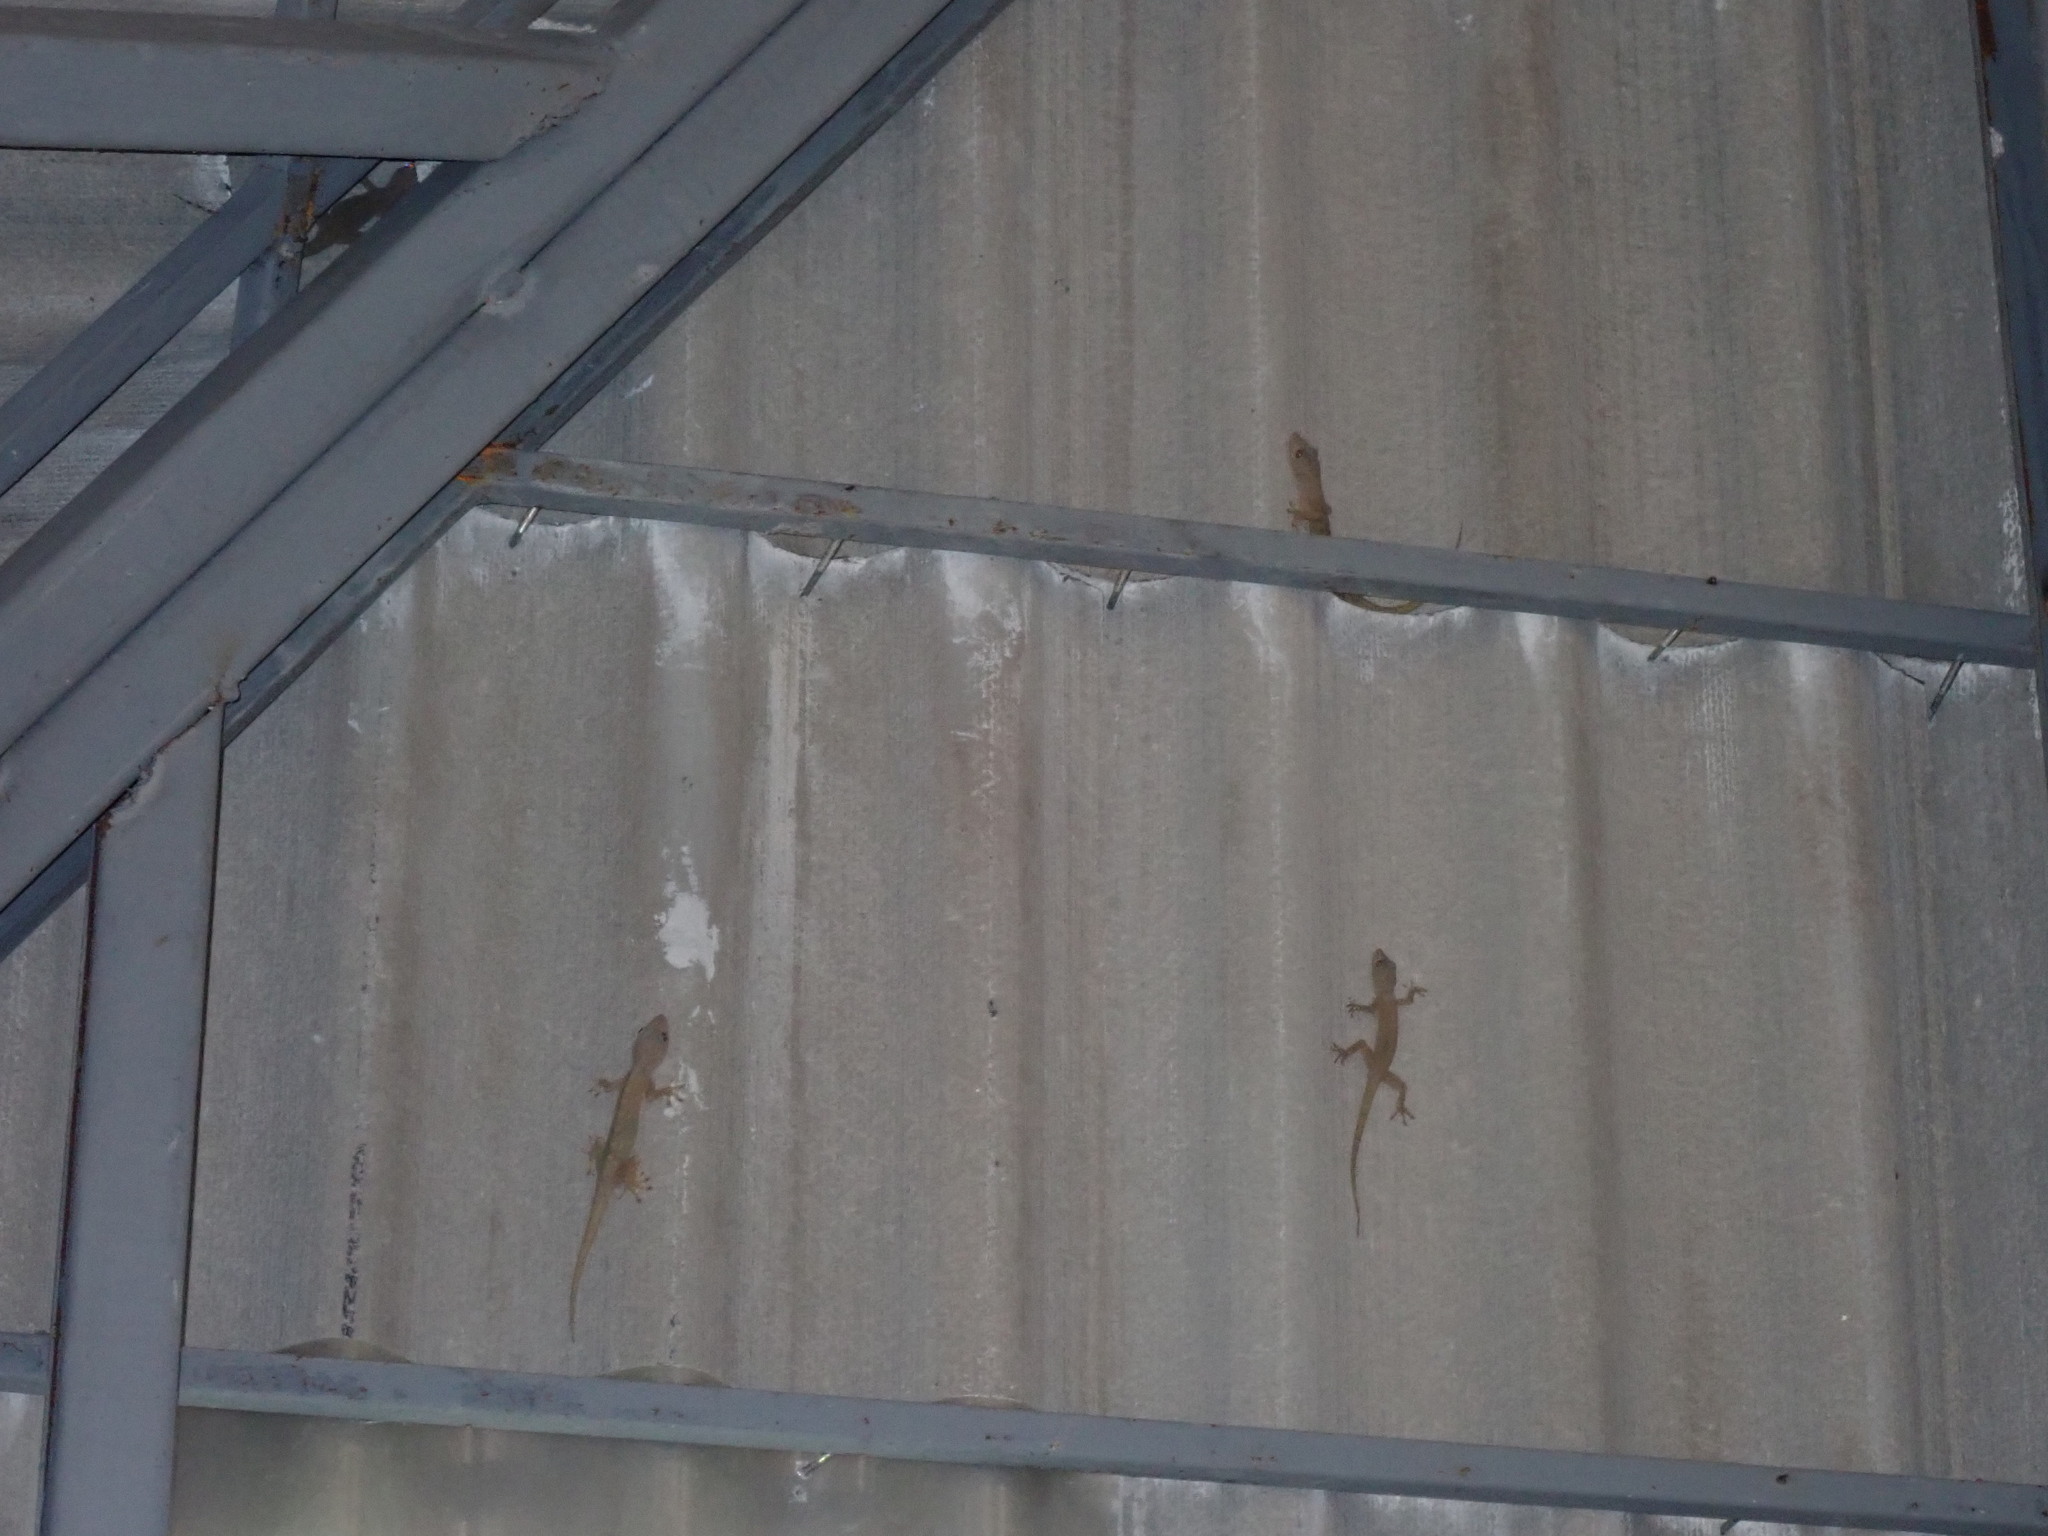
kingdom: Animalia
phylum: Chordata
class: Squamata
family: Gekkonidae
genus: Gekko
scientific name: Gekko petricolus
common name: Sandstone gecko
